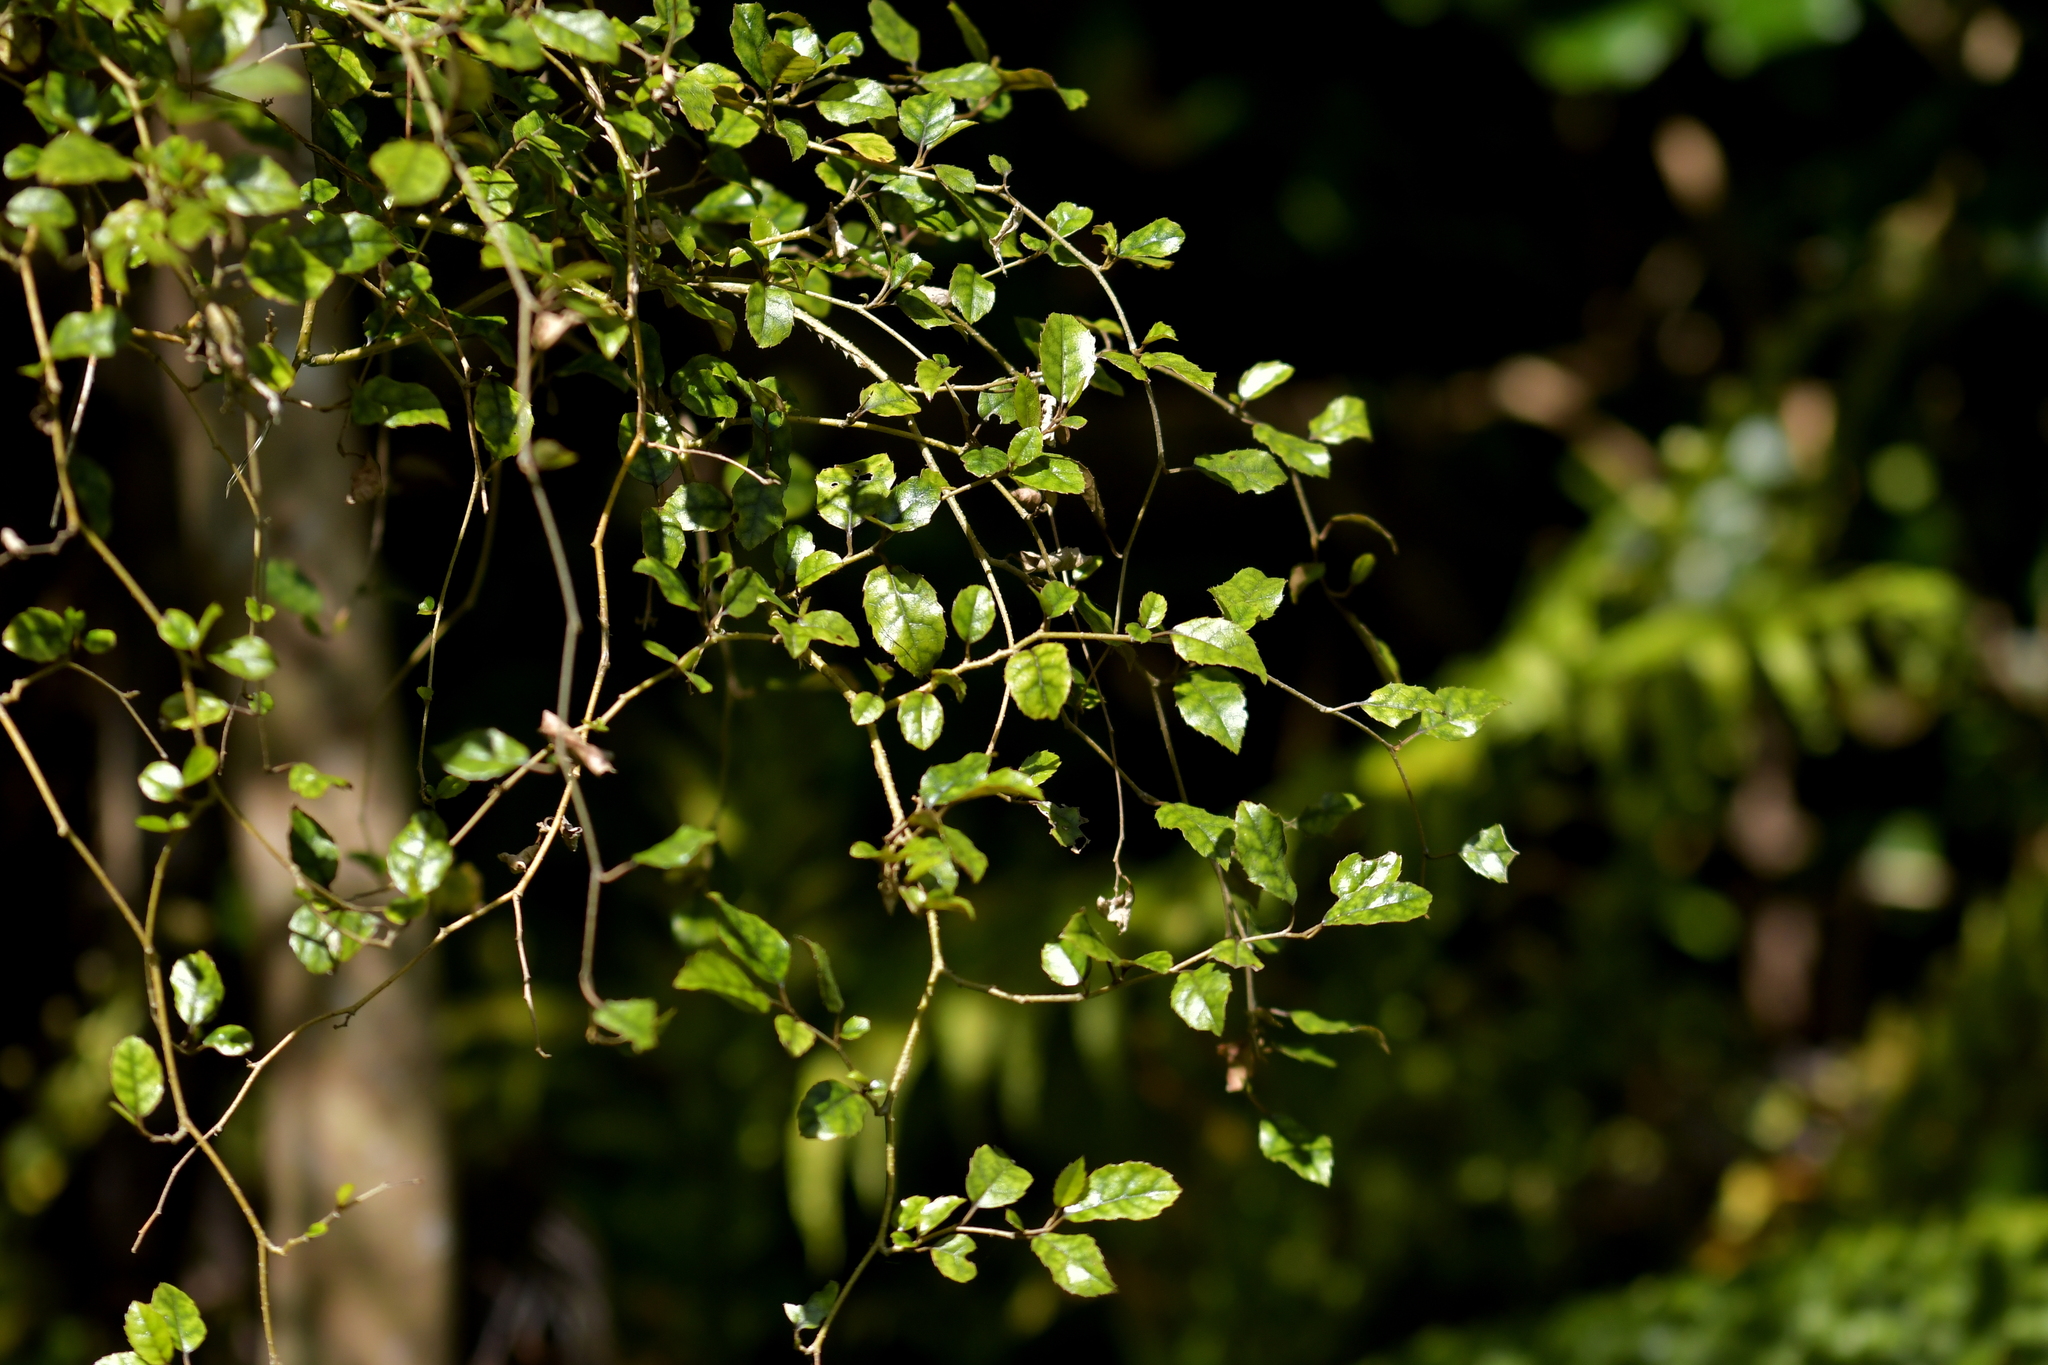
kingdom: Plantae
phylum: Tracheophyta
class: Magnoliopsida
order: Asterales
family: Rousseaceae
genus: Carpodetus
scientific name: Carpodetus serratus
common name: White mapau
